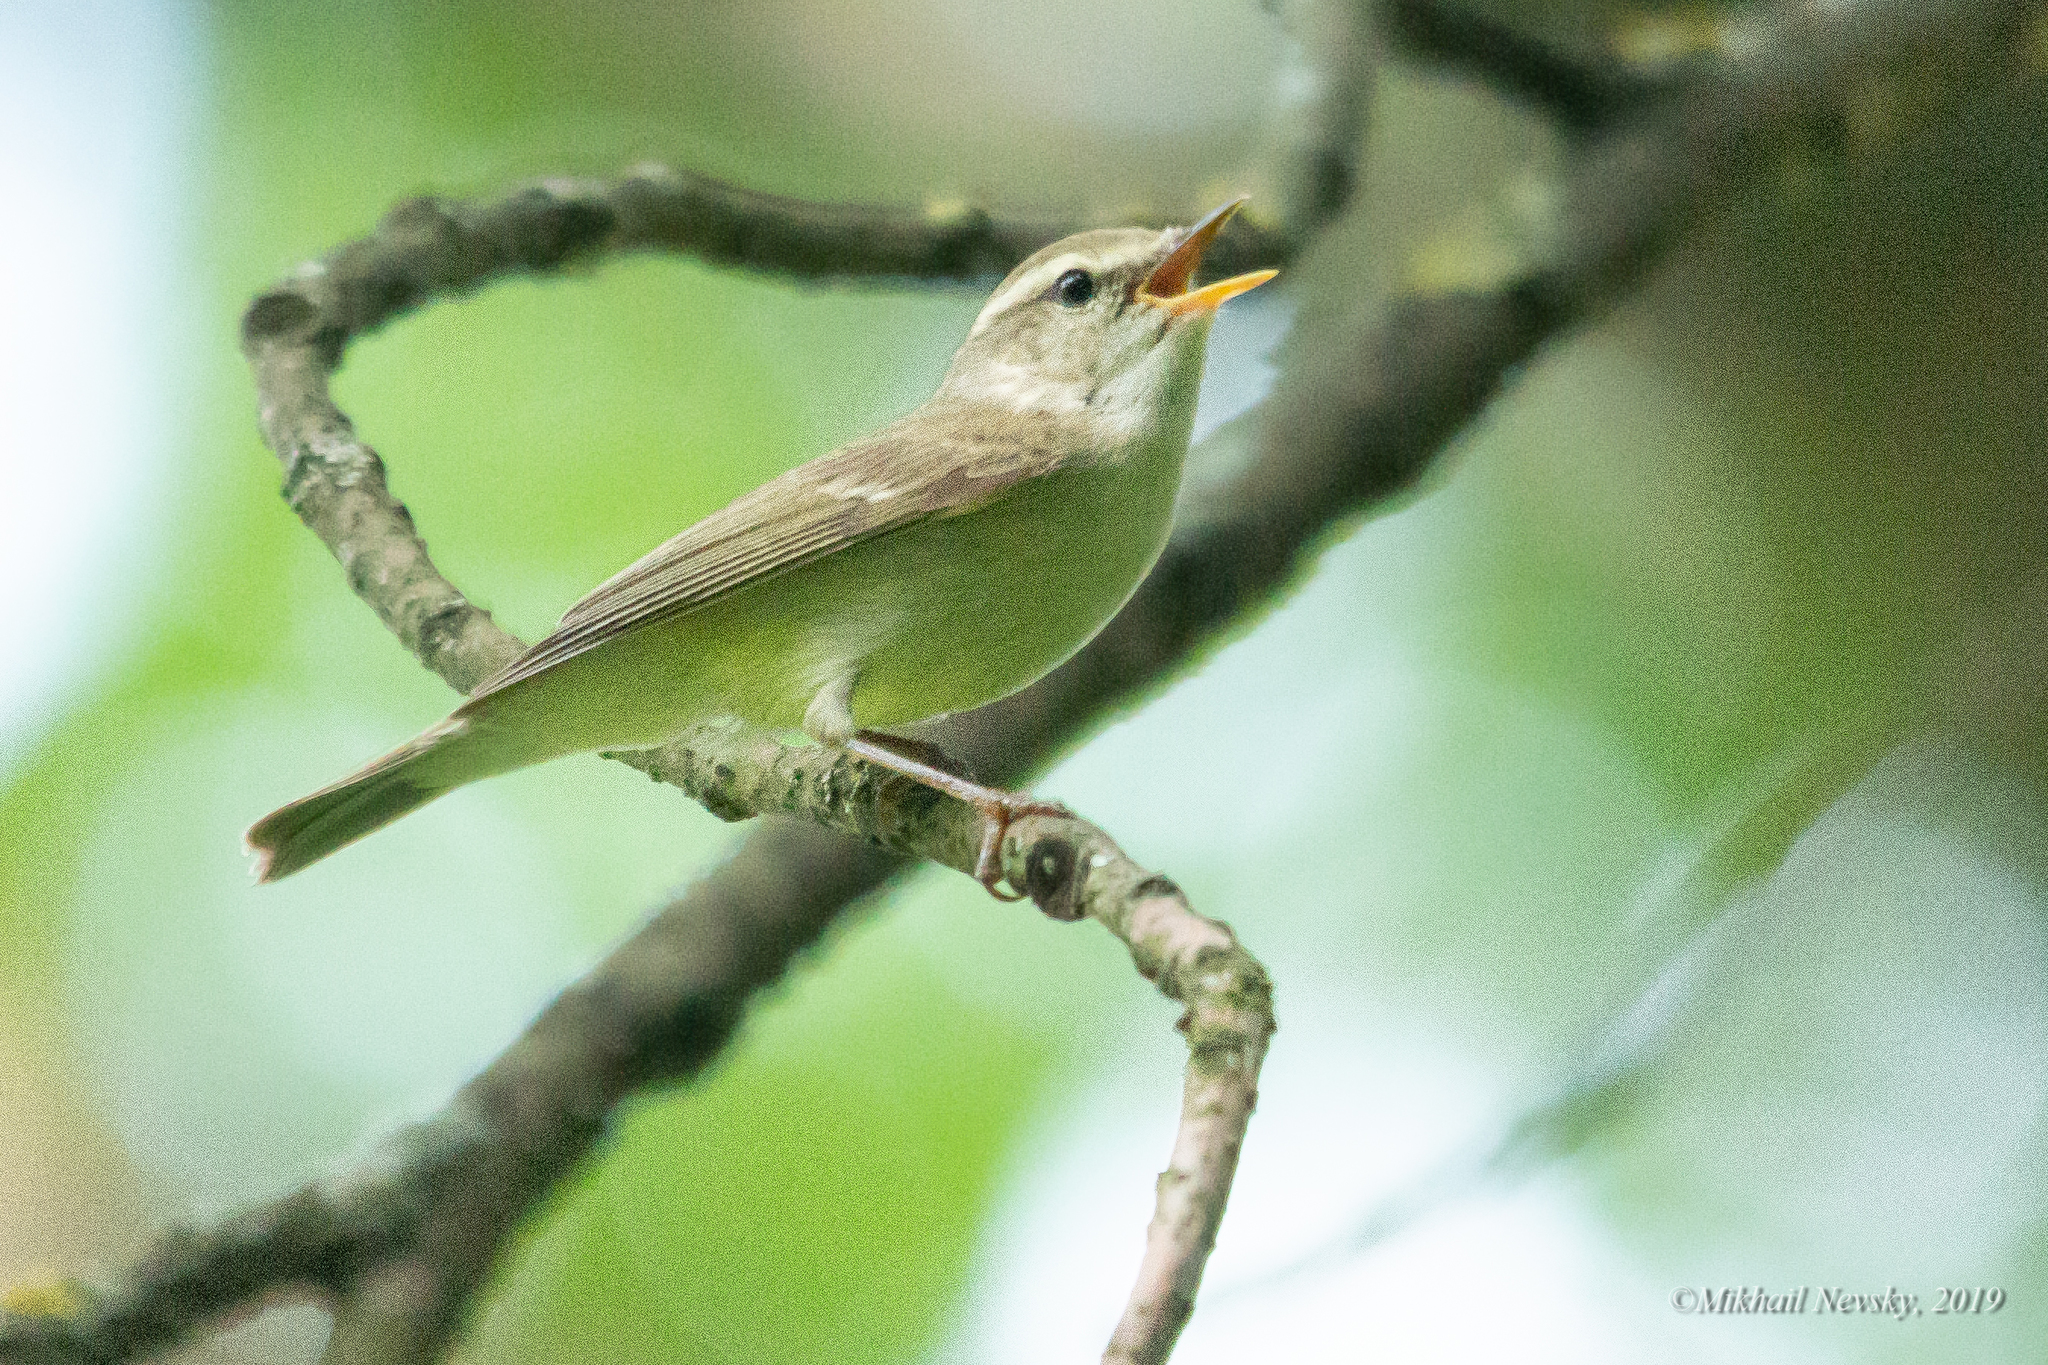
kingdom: Animalia
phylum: Chordata
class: Aves
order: Passeriformes
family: Phylloscopidae
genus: Phylloscopus
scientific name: Phylloscopus trochiloides
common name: Greenish warbler
